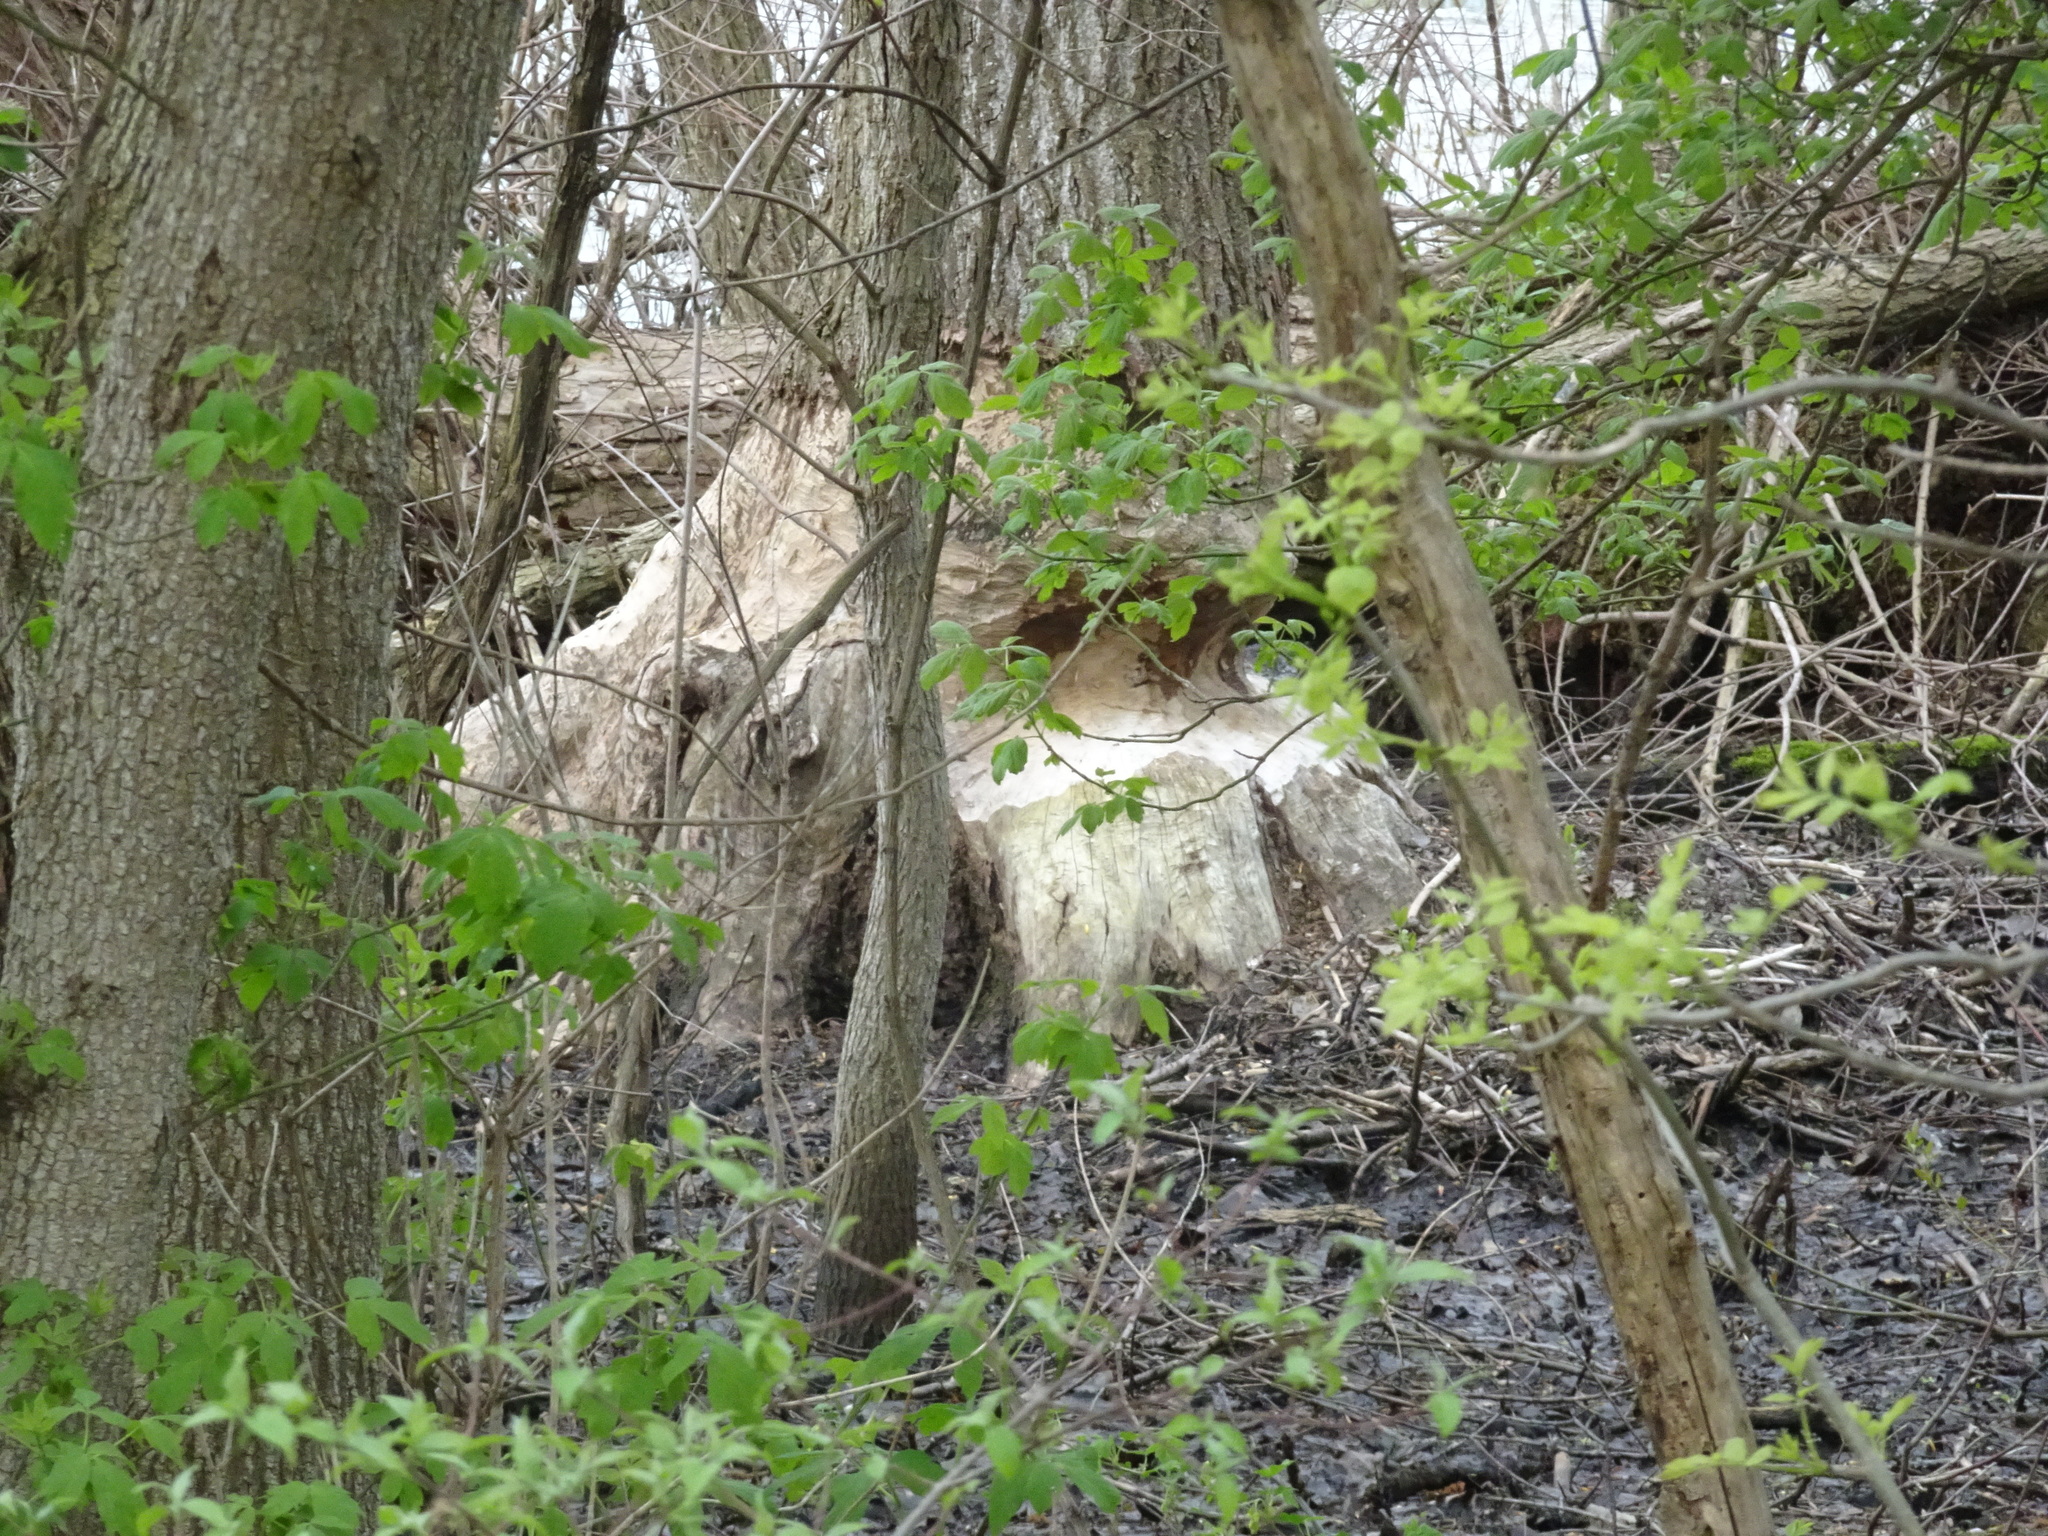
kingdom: Animalia
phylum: Chordata
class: Mammalia
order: Rodentia
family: Castoridae
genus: Castor
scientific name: Castor canadensis
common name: American beaver
